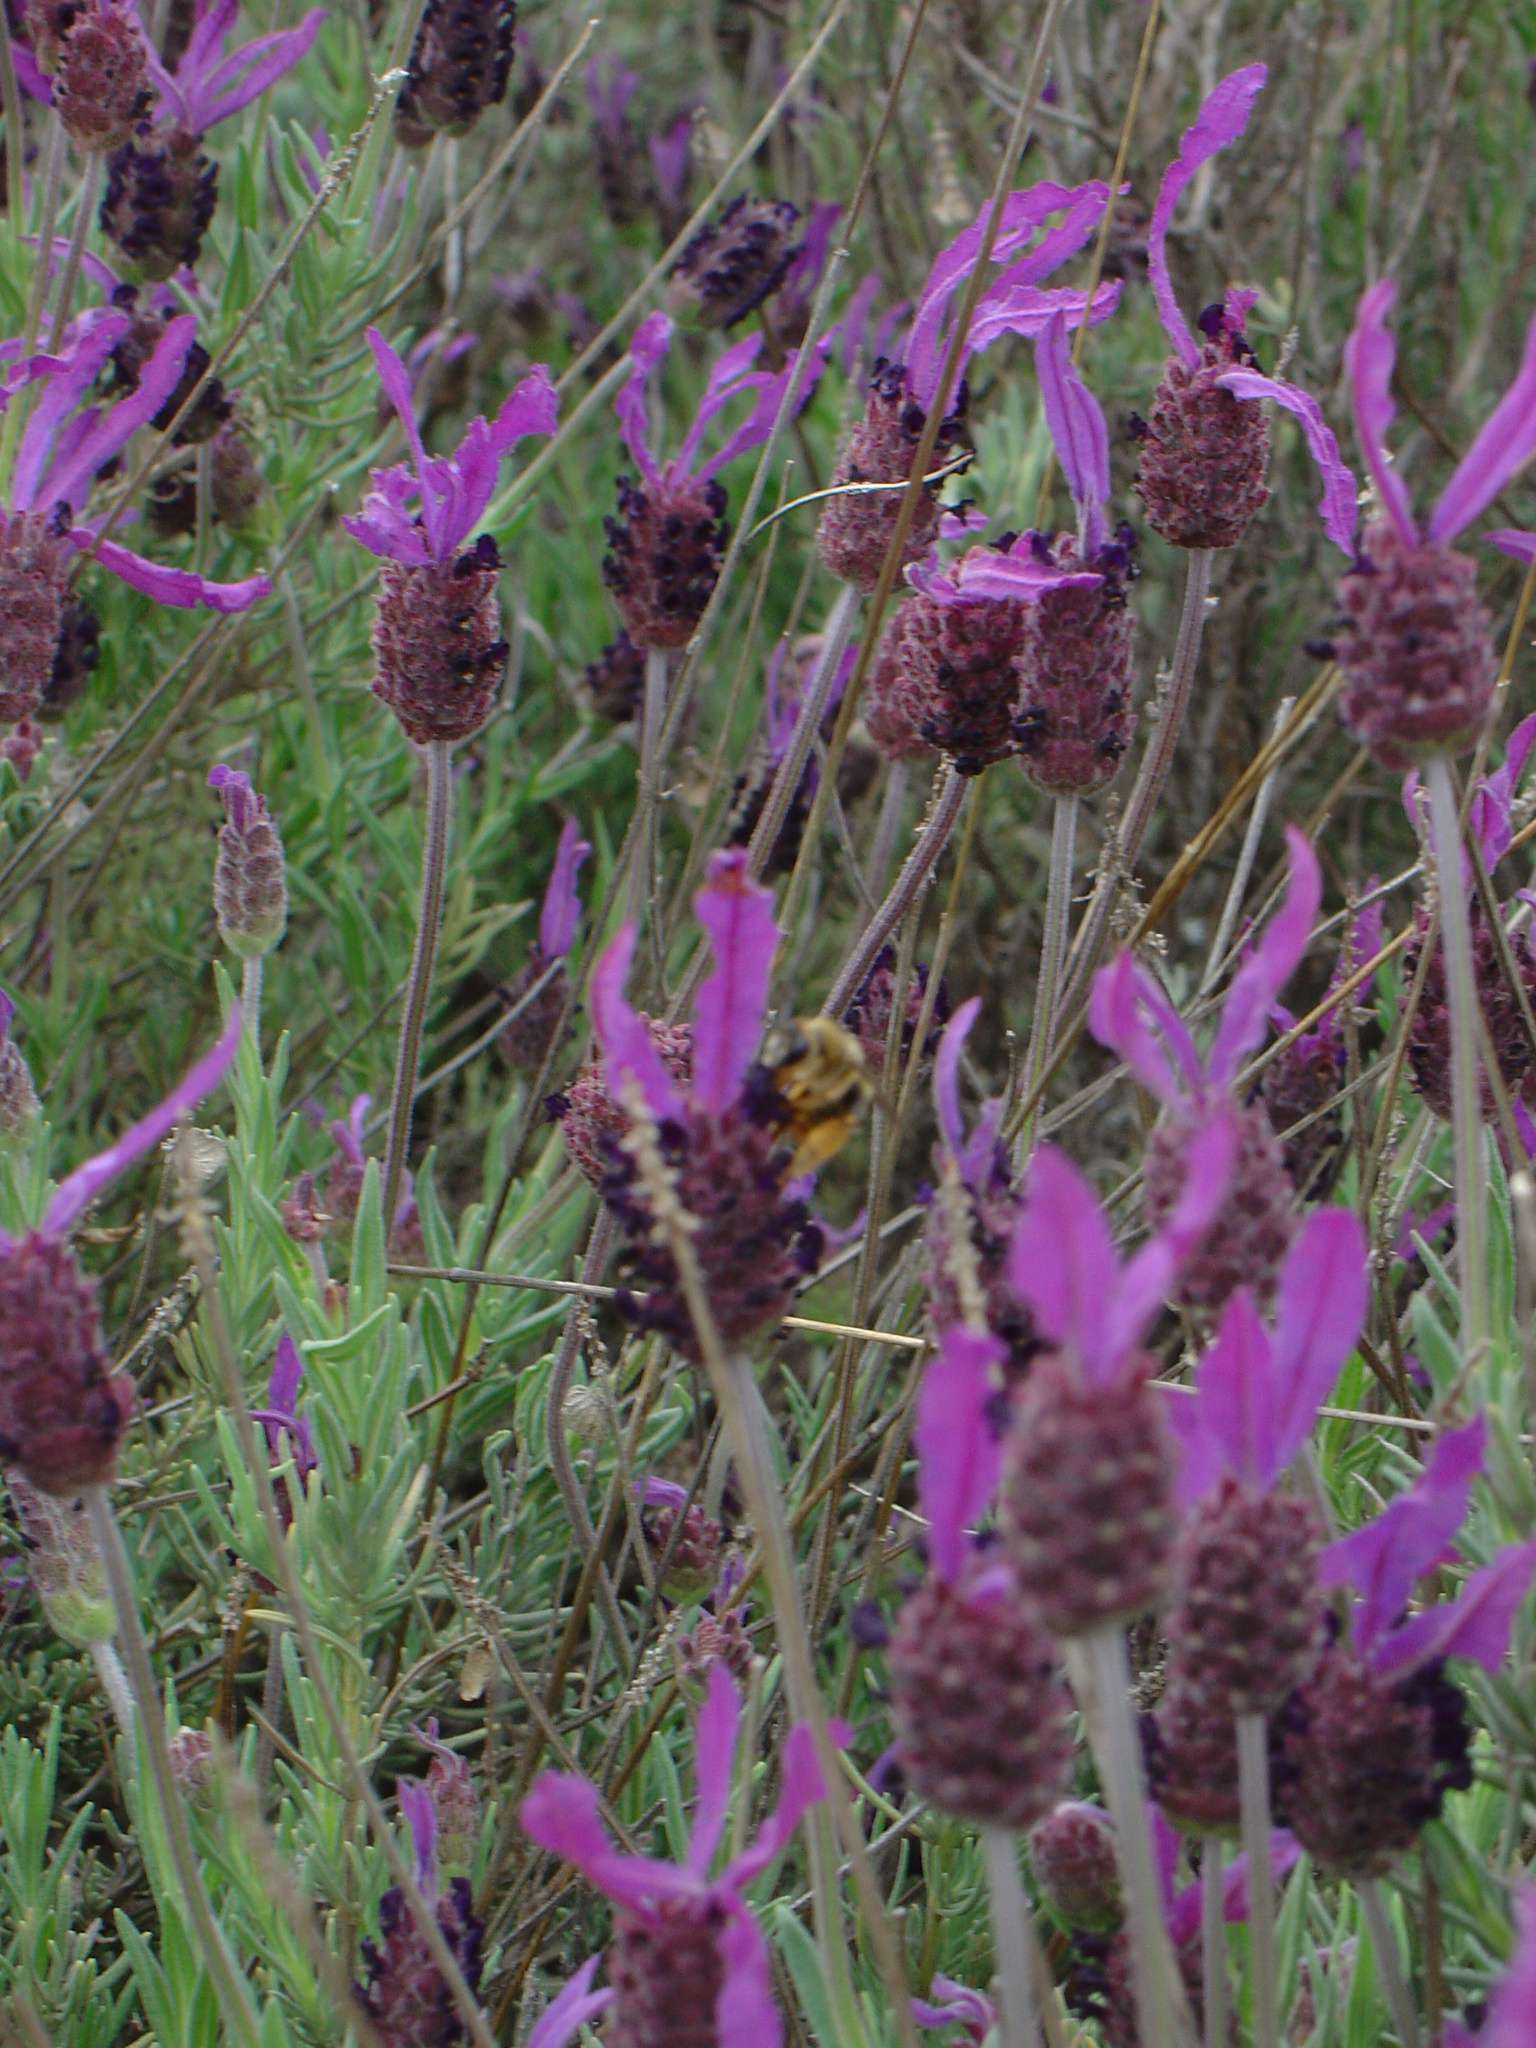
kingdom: Plantae
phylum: Tracheophyta
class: Magnoliopsida
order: Lamiales
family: Lamiaceae
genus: Lavandula
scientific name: Lavandula pedunculata
